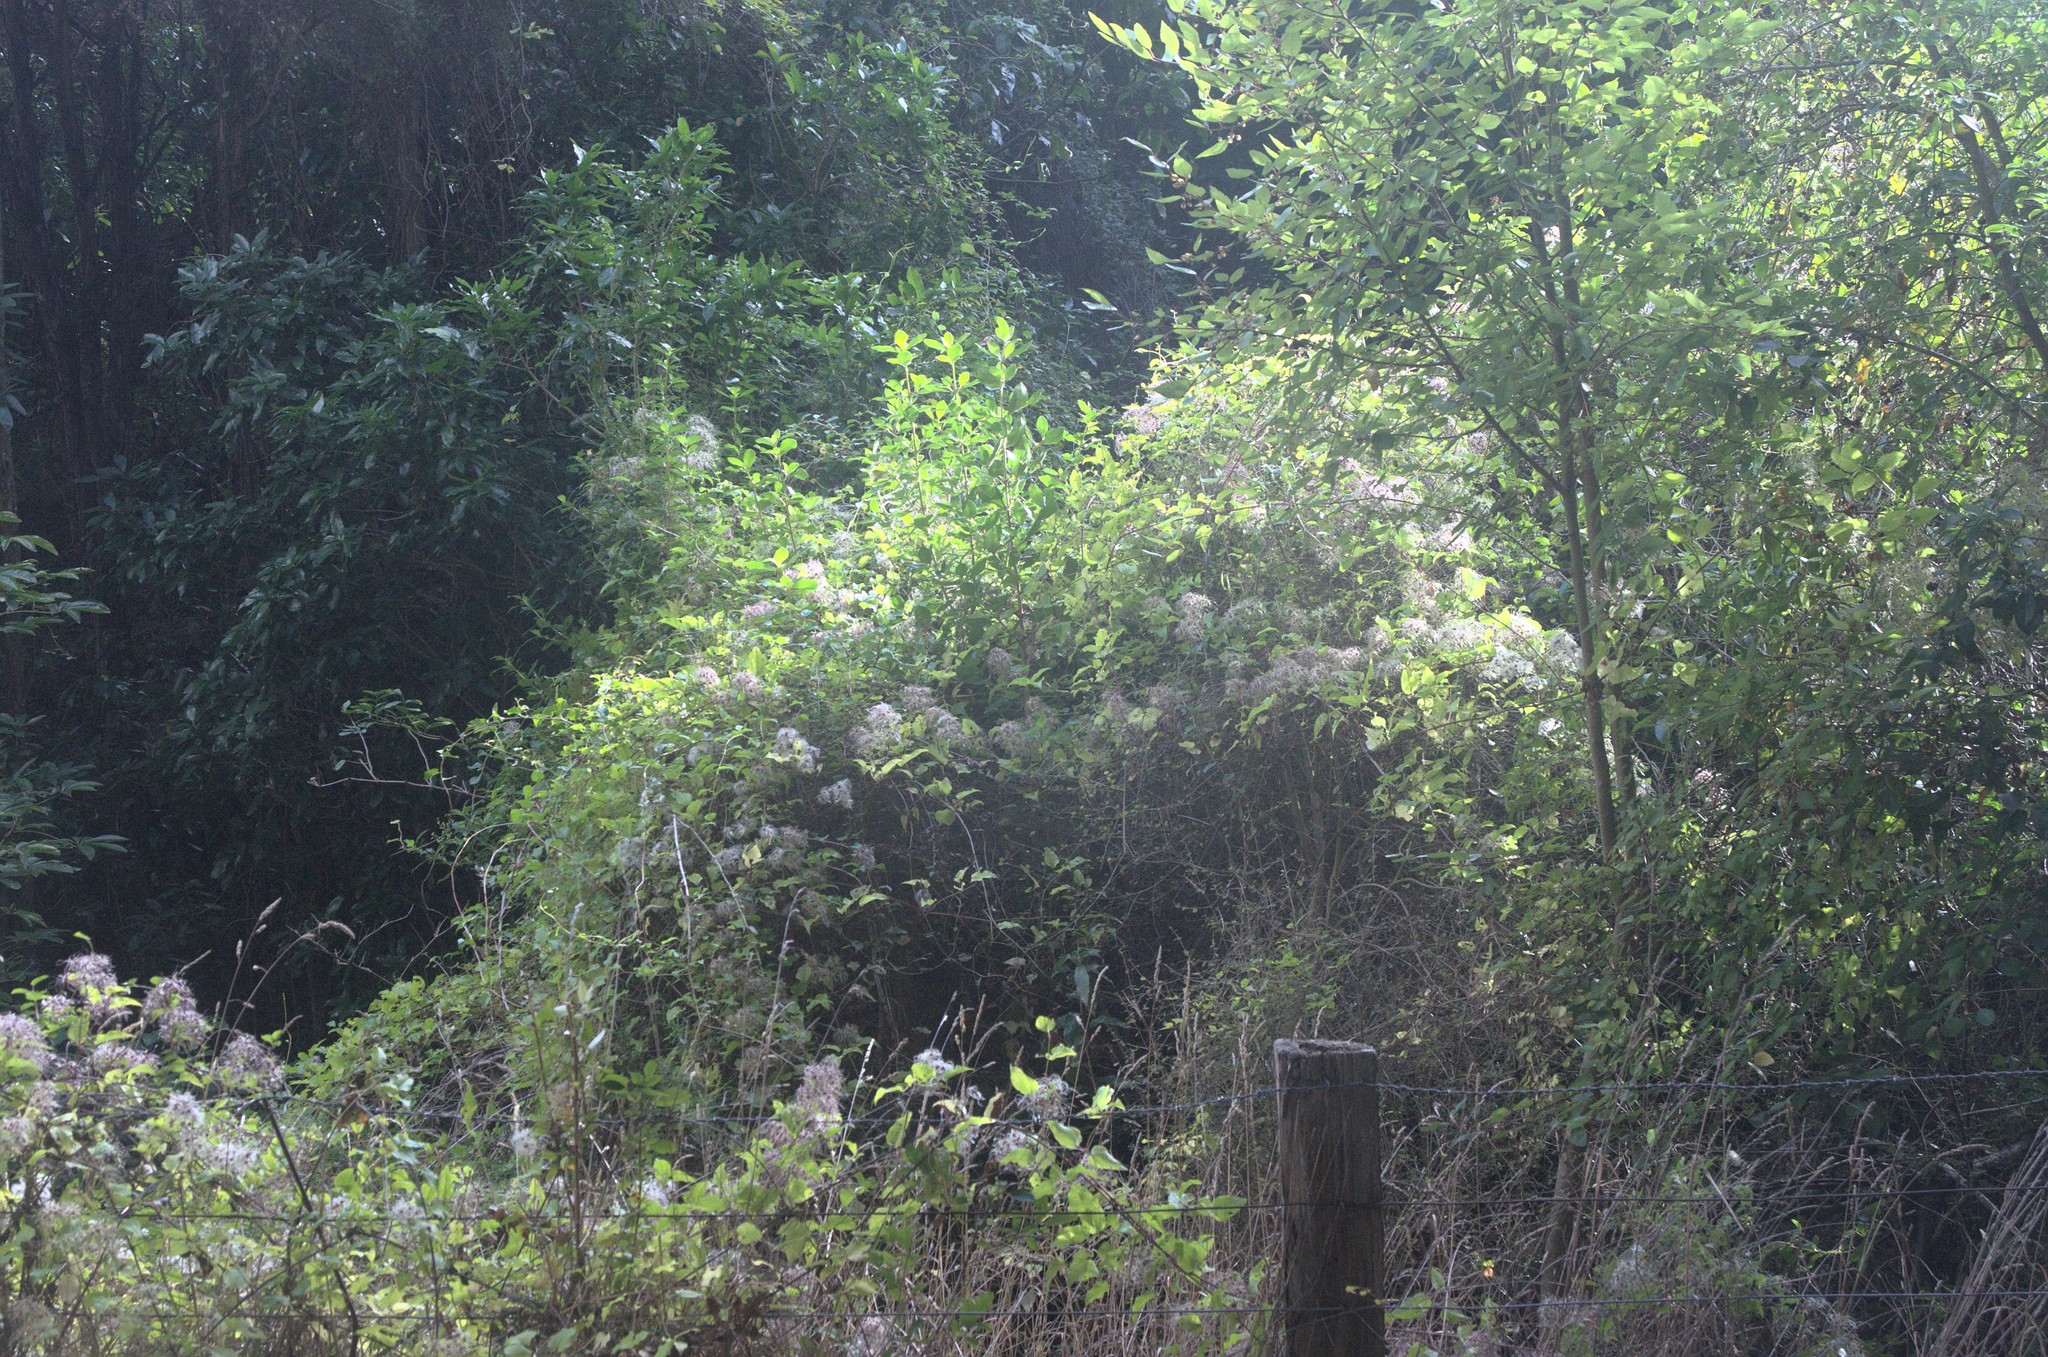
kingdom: Plantae
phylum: Tracheophyta
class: Magnoliopsida
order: Ranunculales
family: Ranunculaceae
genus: Clematis
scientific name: Clematis vitalba
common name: Evergreen clematis
